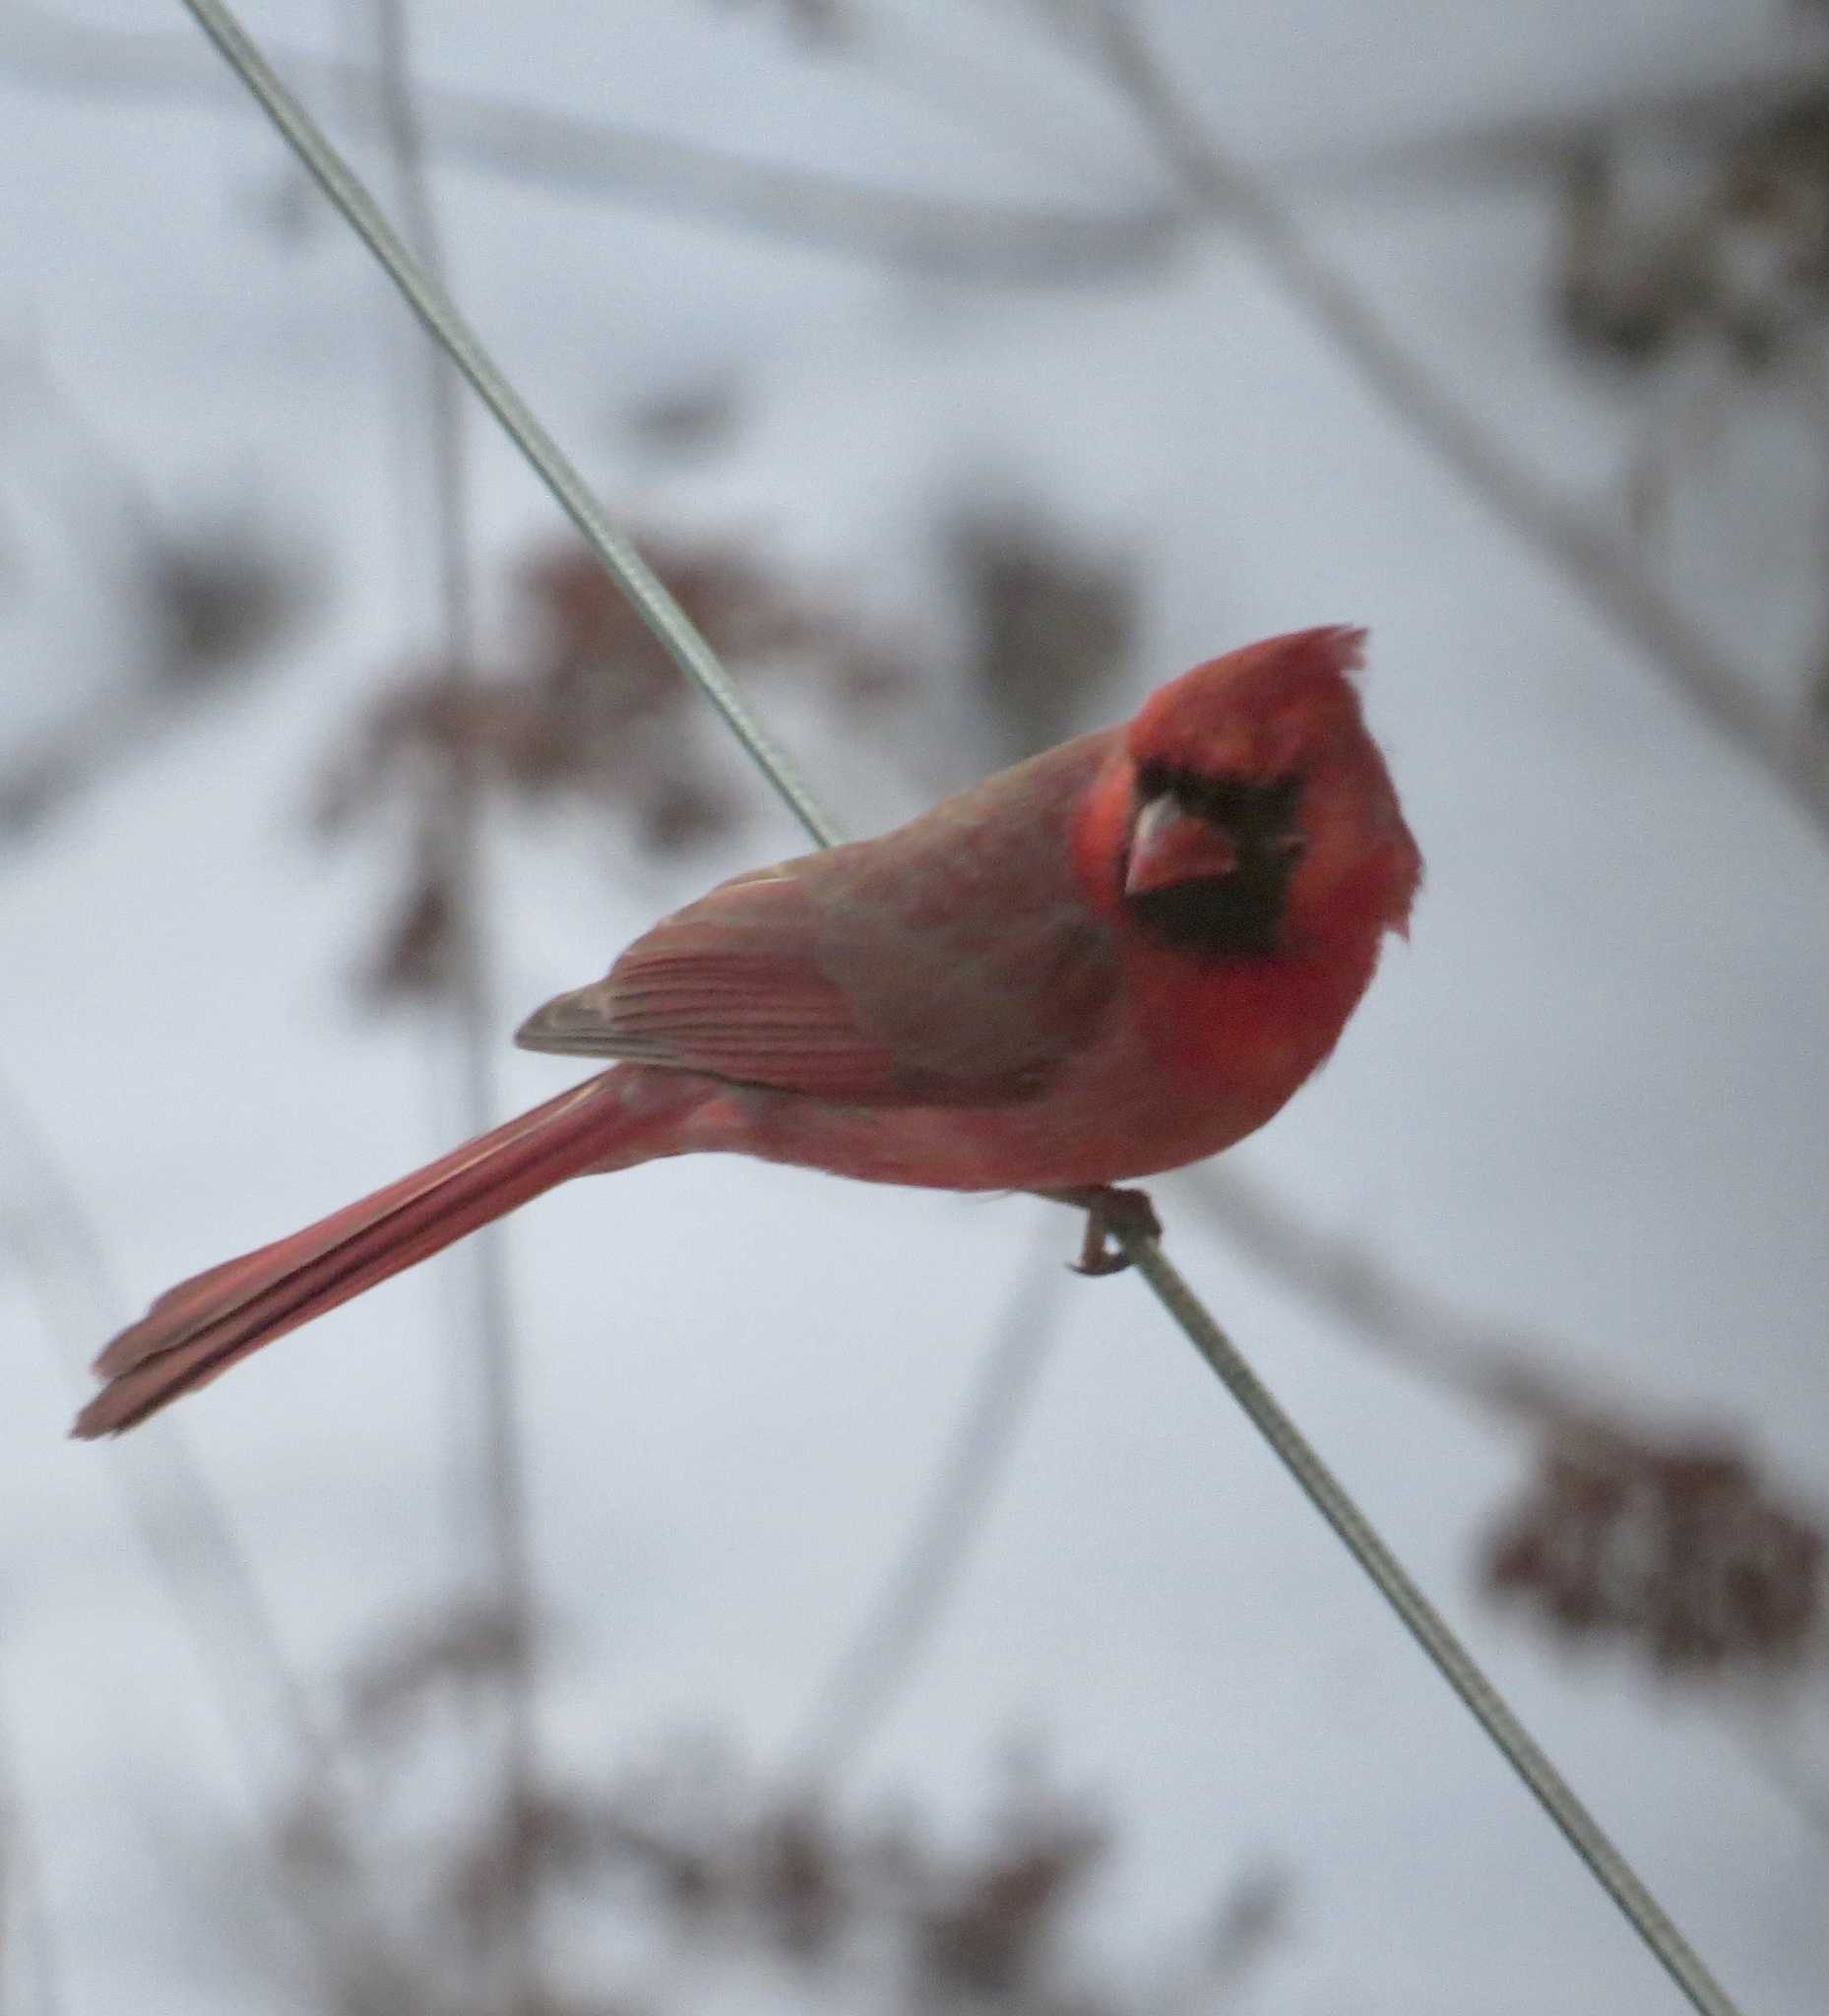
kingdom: Animalia
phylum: Chordata
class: Aves
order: Passeriformes
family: Cardinalidae
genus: Cardinalis
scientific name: Cardinalis cardinalis
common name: Northern cardinal
